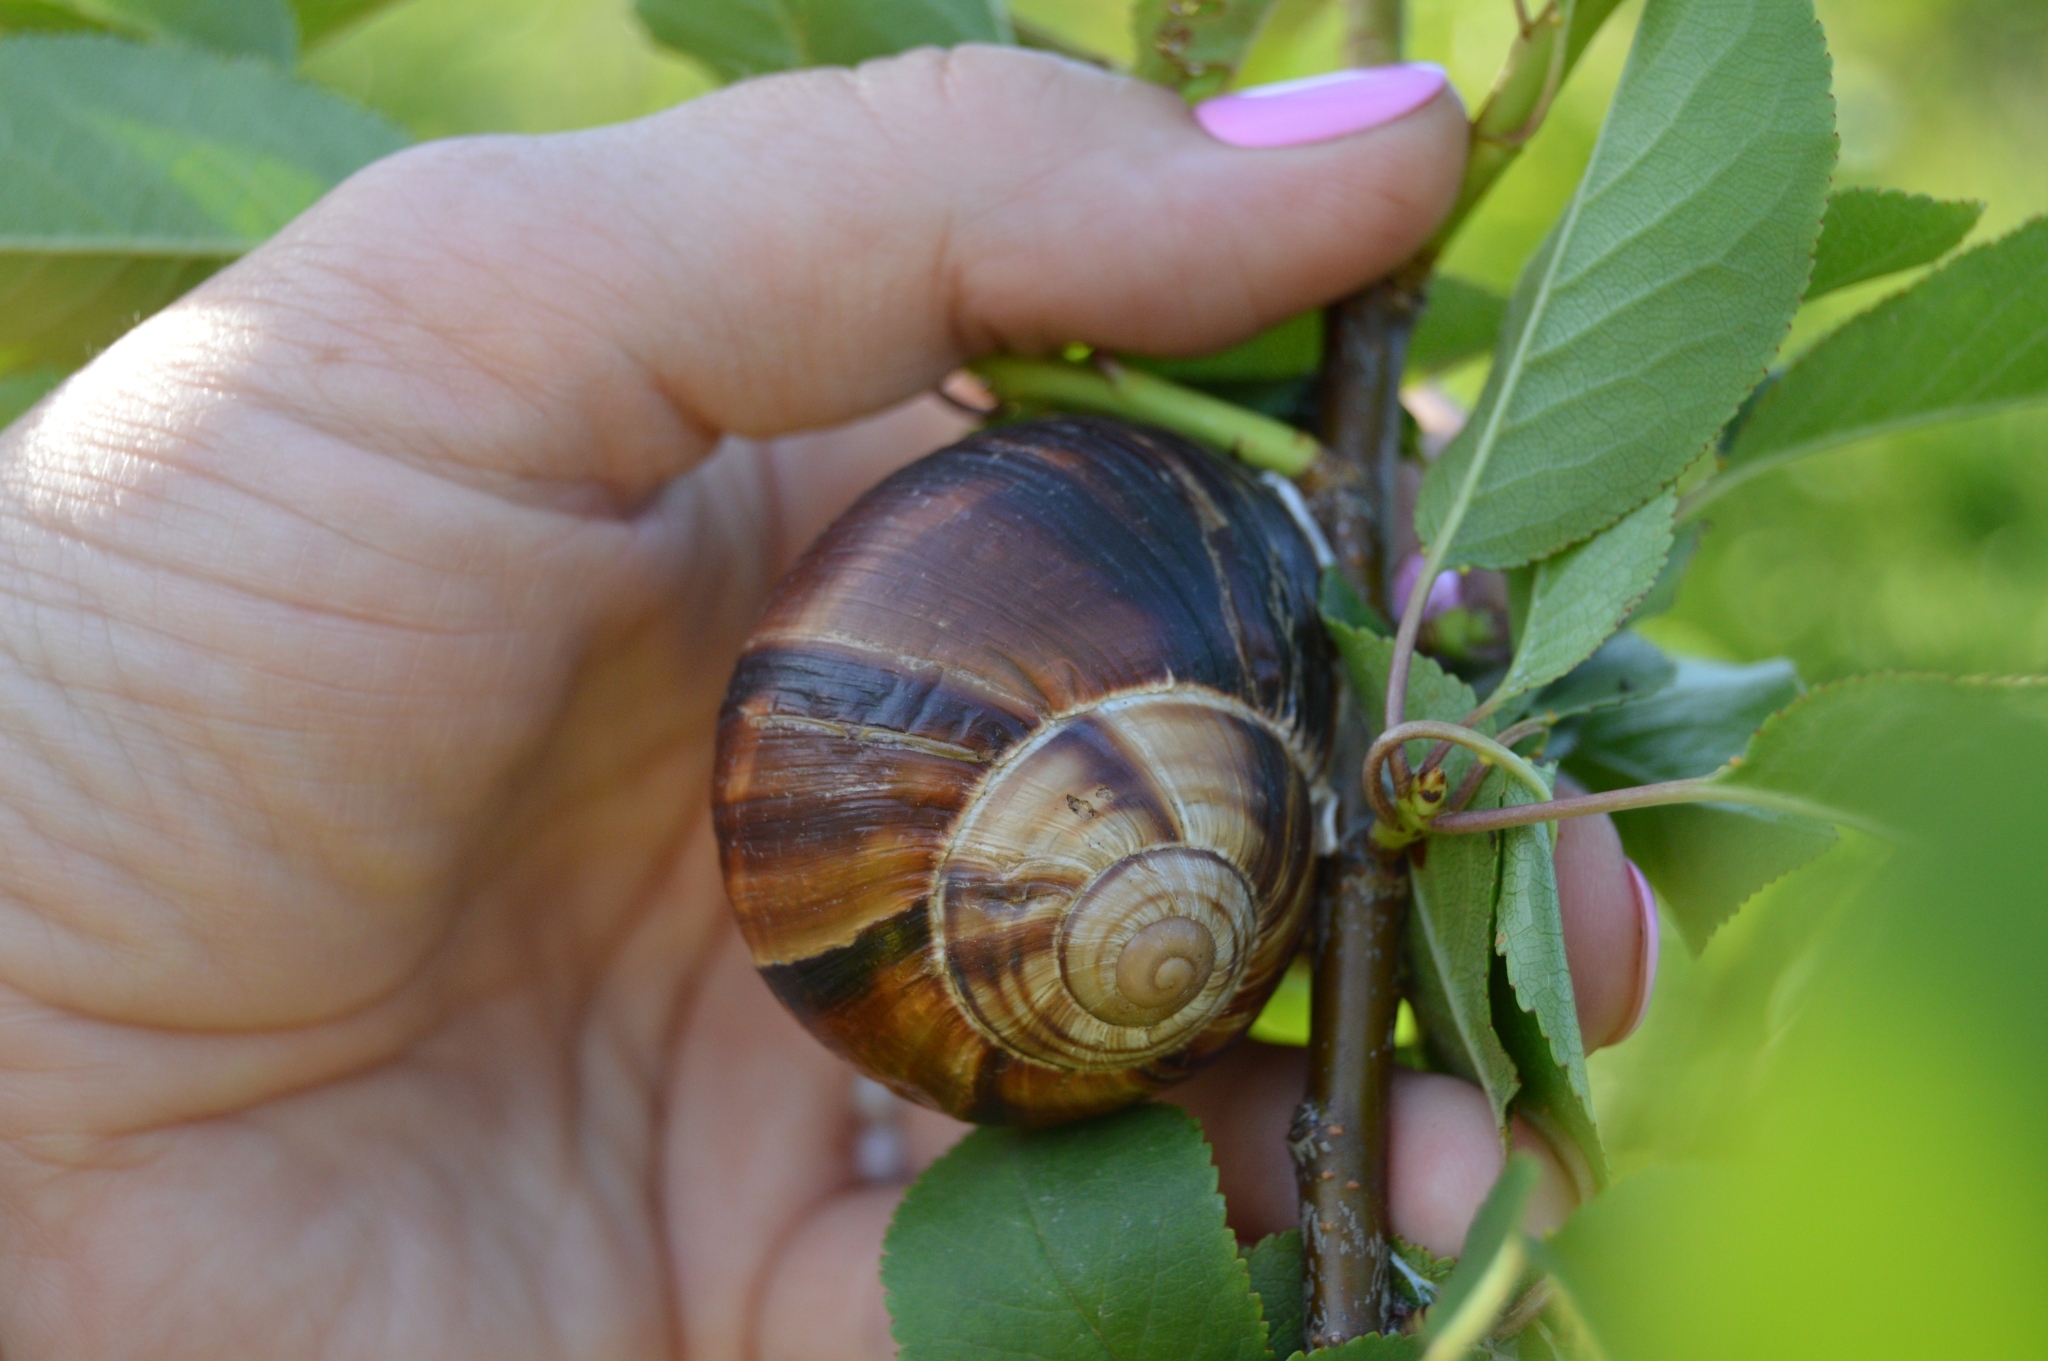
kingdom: Animalia
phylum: Mollusca
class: Gastropoda
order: Stylommatophora
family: Helicidae
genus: Helix
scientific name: Helix lucorum
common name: Turkish snail
